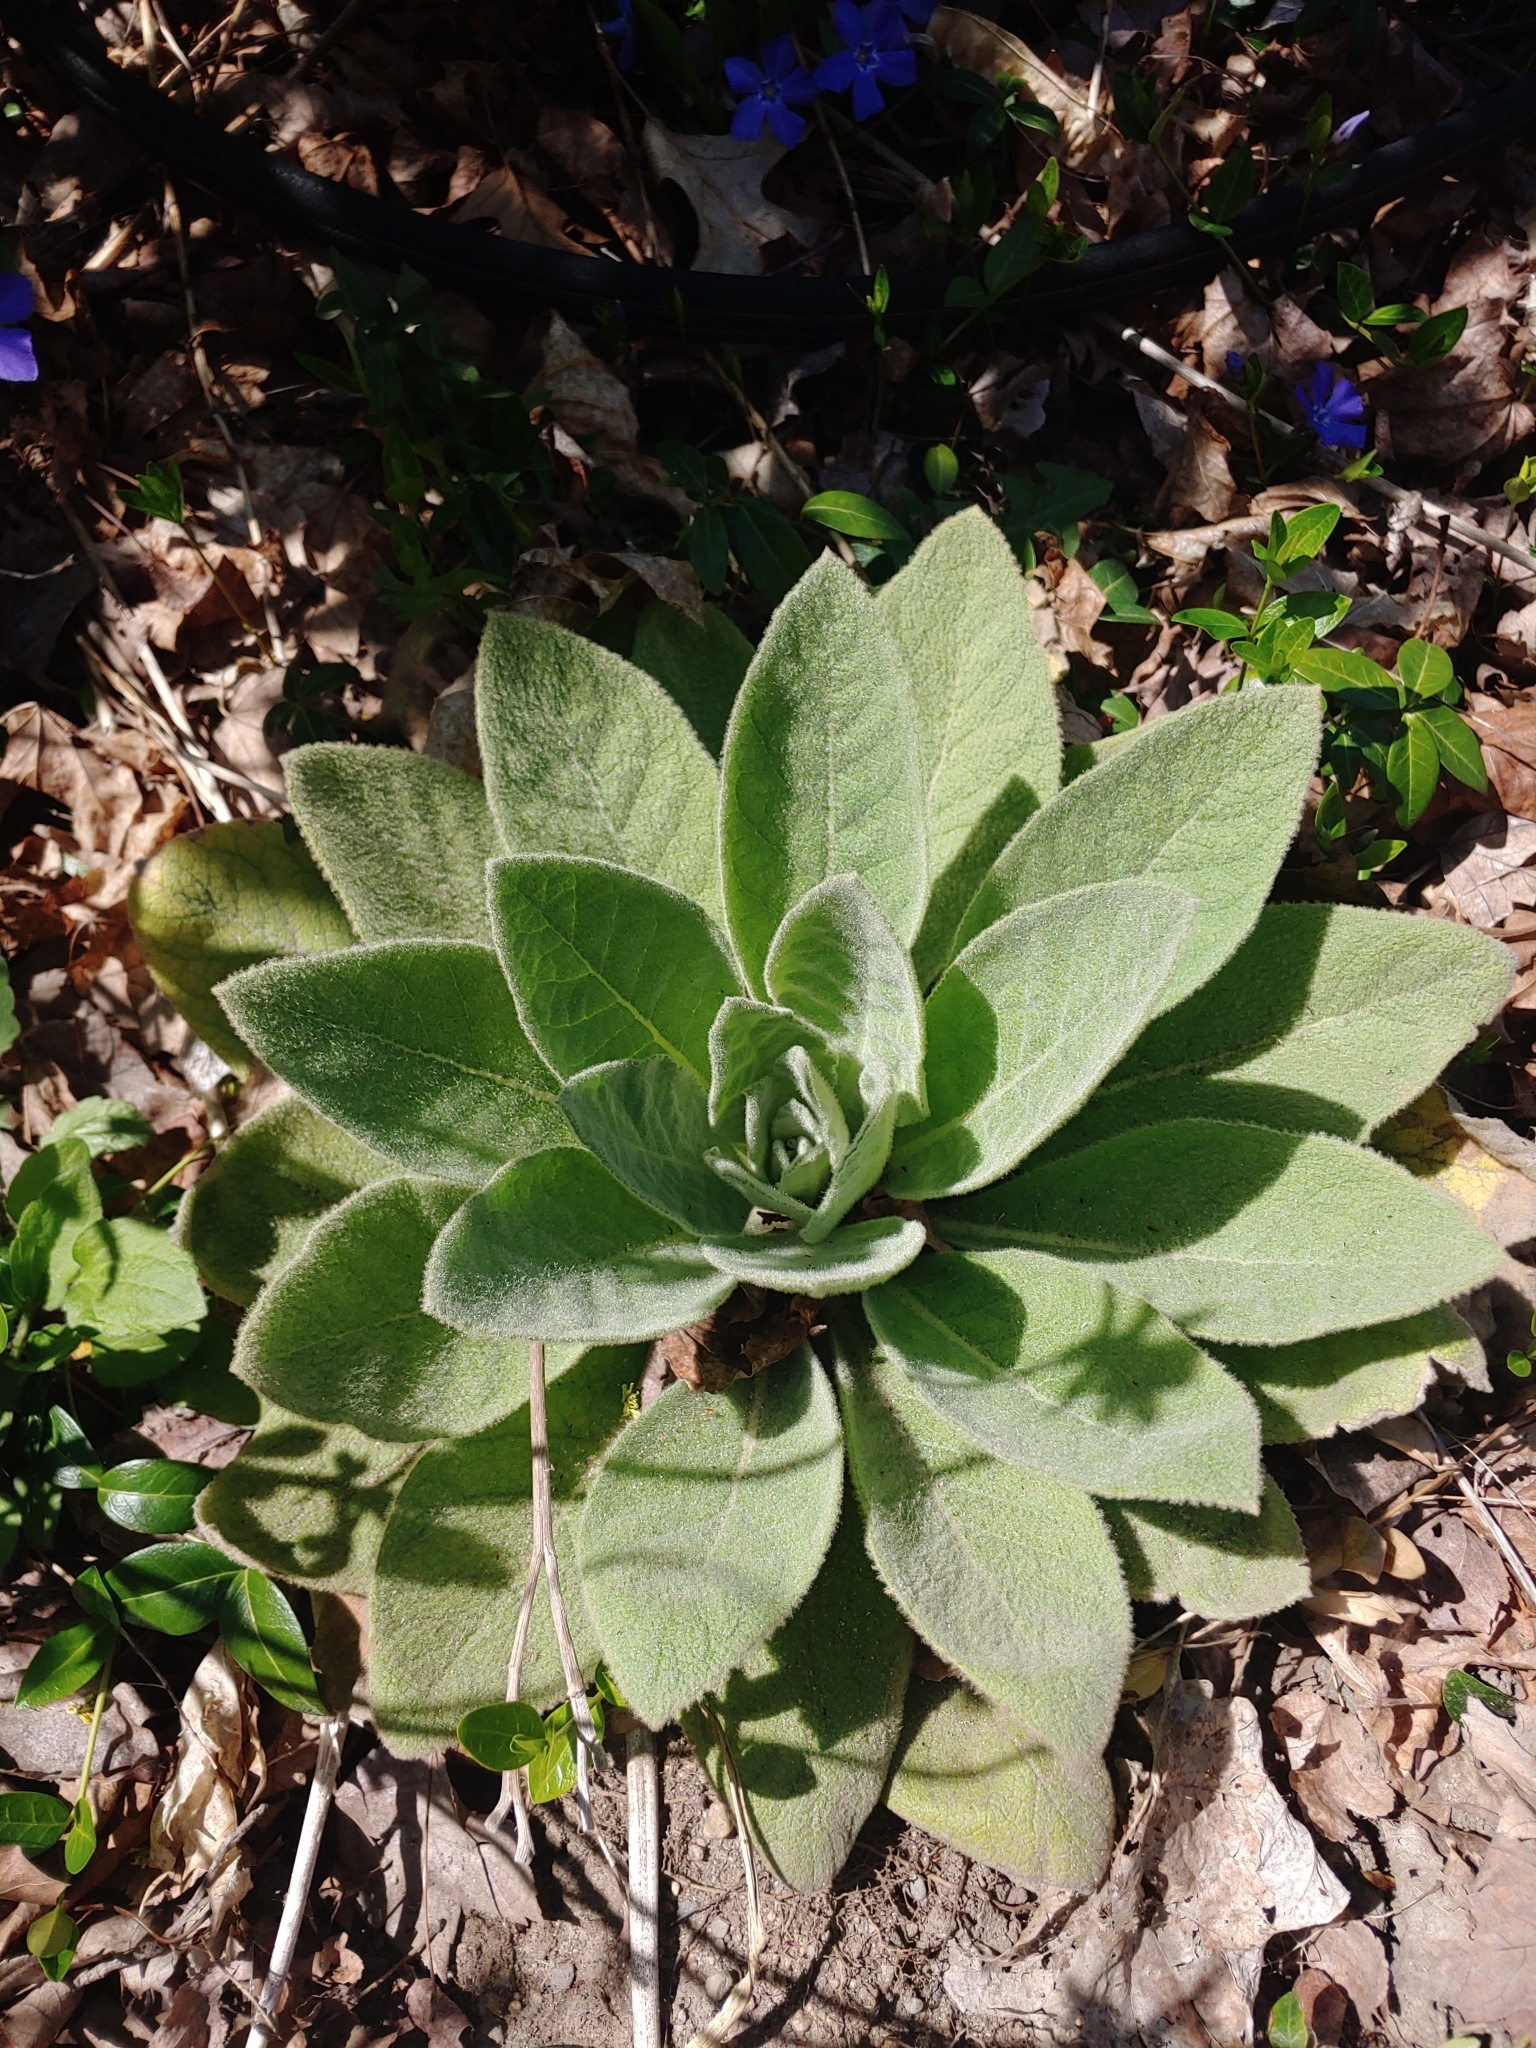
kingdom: Plantae
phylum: Tracheophyta
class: Magnoliopsida
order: Lamiales
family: Scrophulariaceae
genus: Verbascum
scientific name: Verbascum thapsus
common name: Common mullein
